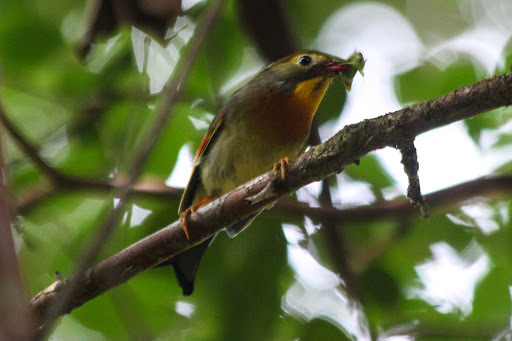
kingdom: Animalia
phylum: Chordata
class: Aves
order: Passeriformes
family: Leiothrichidae
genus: Leiothrix
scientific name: Leiothrix lutea
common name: Red-billed leiothrix
